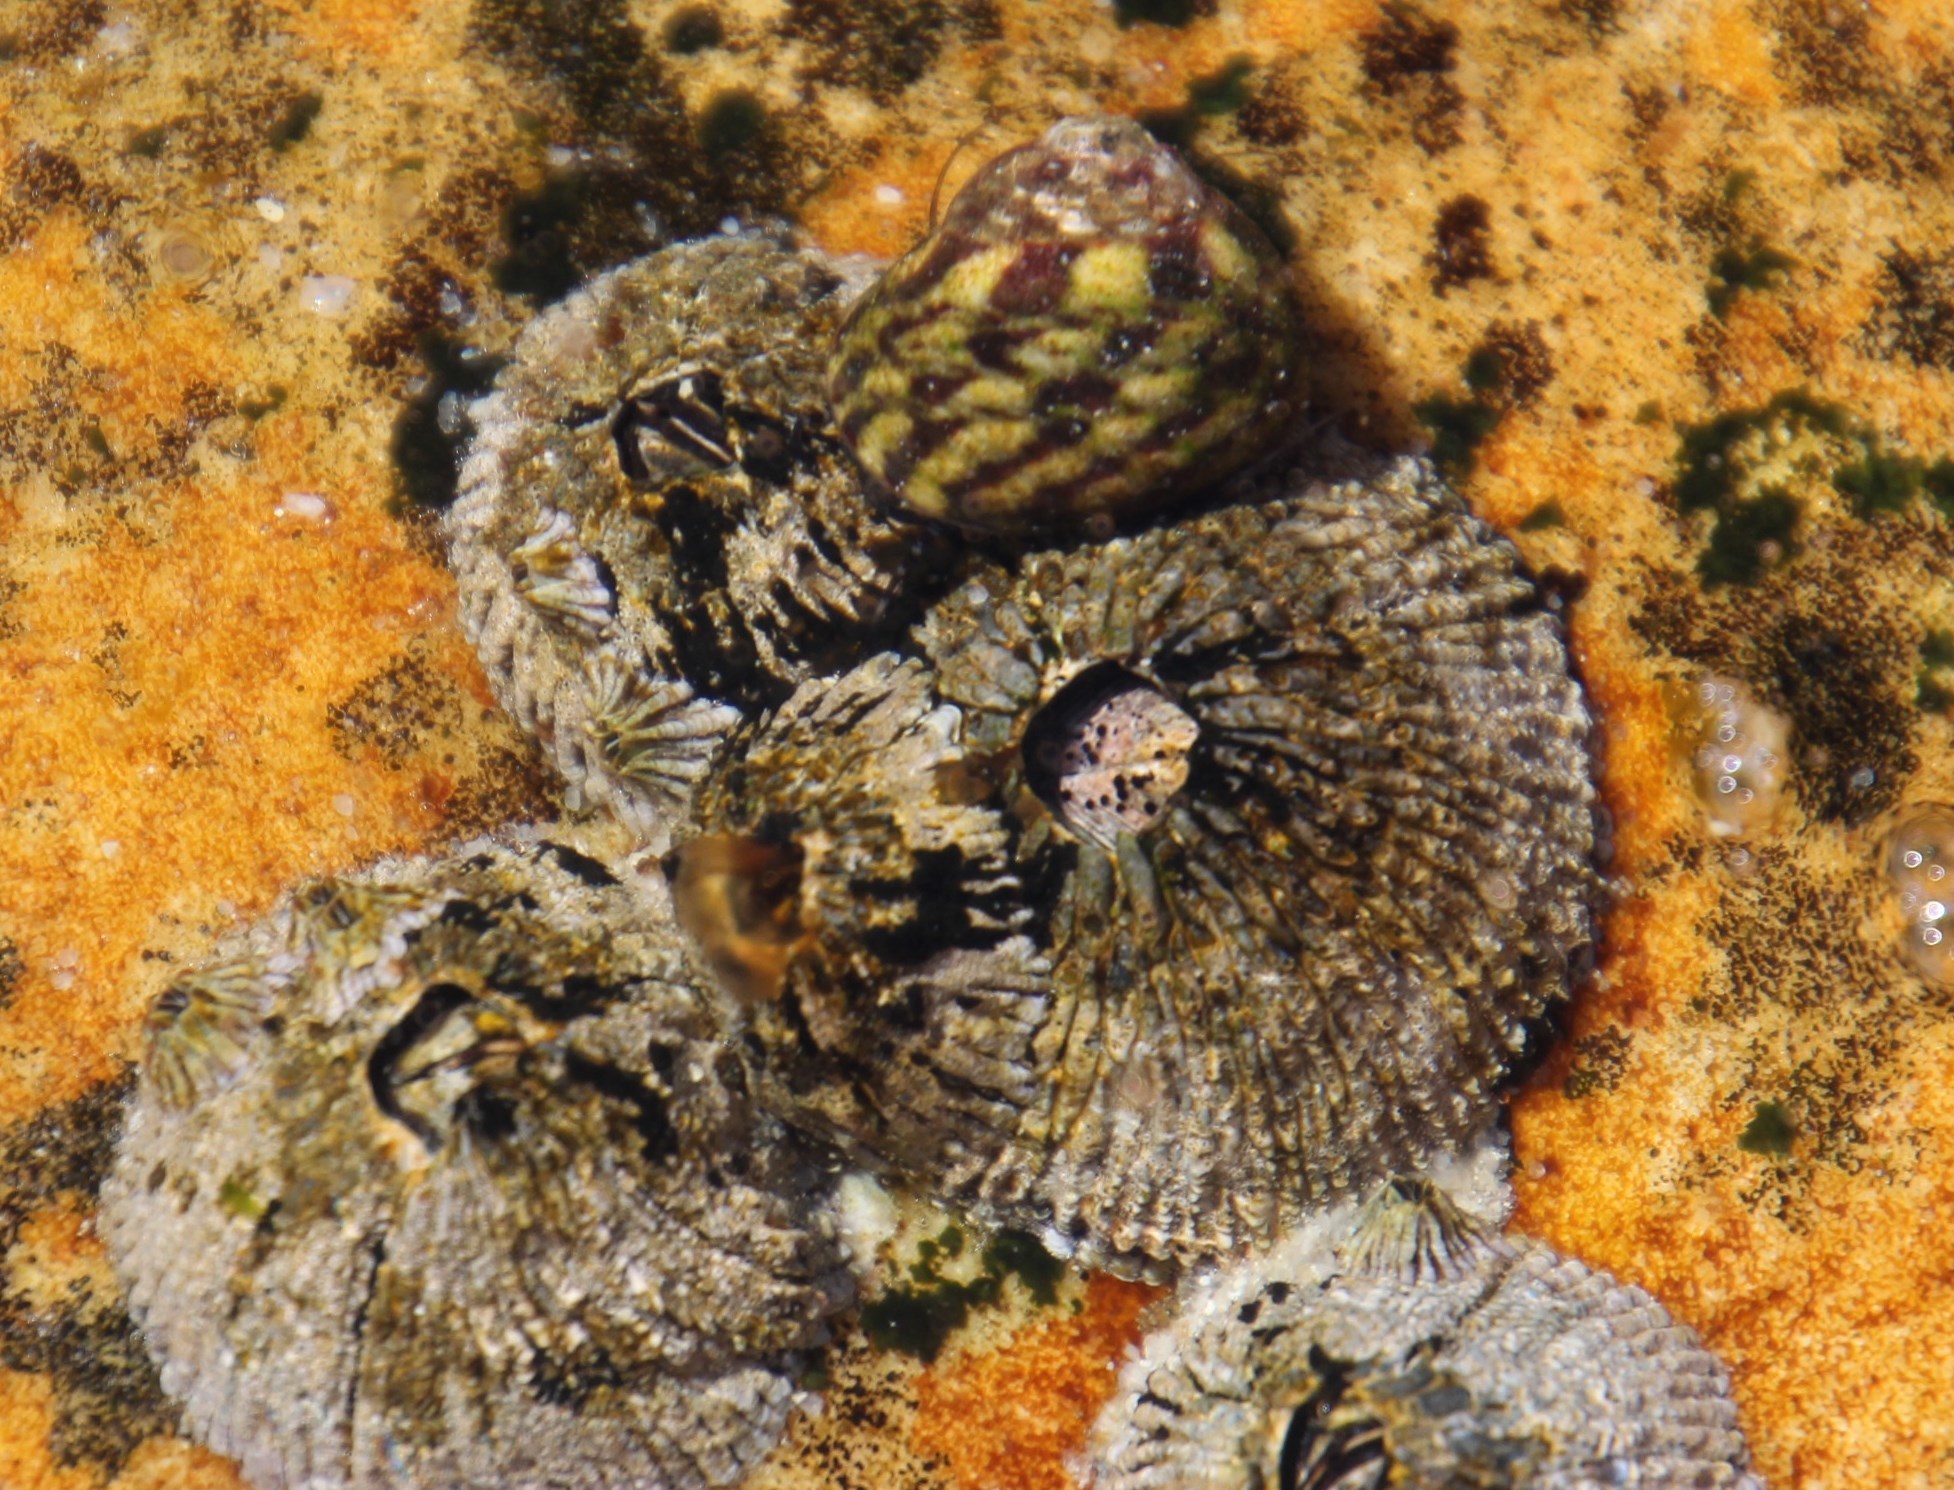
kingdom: Animalia
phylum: Arthropoda
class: Maxillopoda
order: Sessilia
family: Tetraclitidae
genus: Tetraclita
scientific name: Tetraclita serrata
